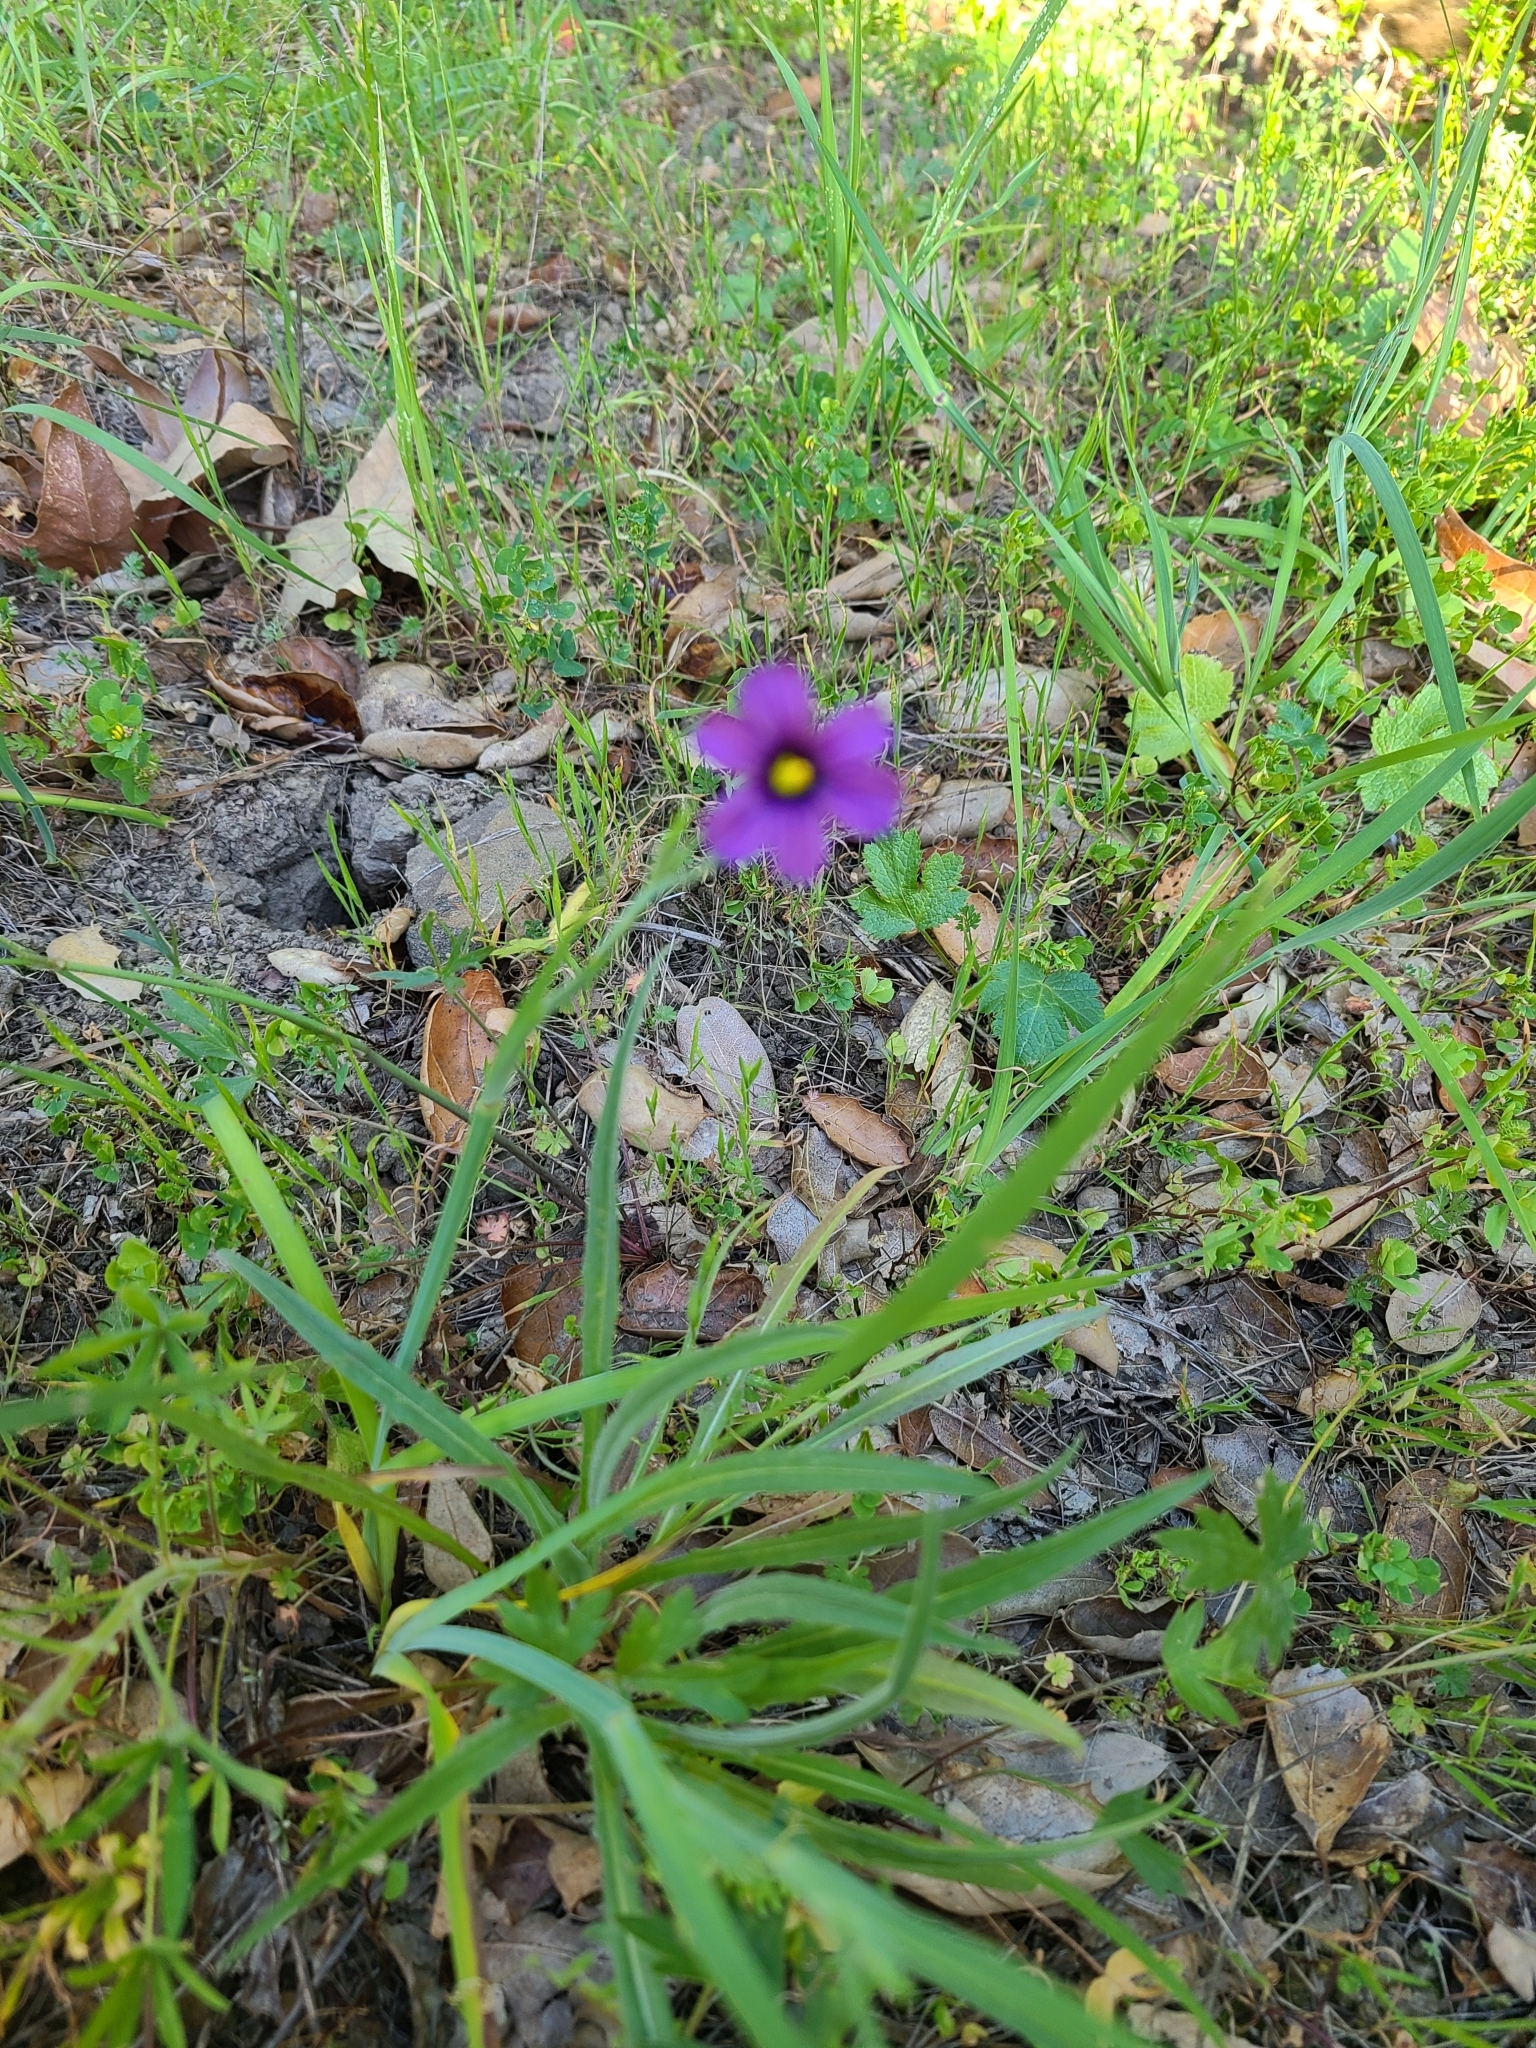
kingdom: Plantae
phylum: Tracheophyta
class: Liliopsida
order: Asparagales
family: Iridaceae
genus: Sisyrinchium
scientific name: Sisyrinchium bellum
